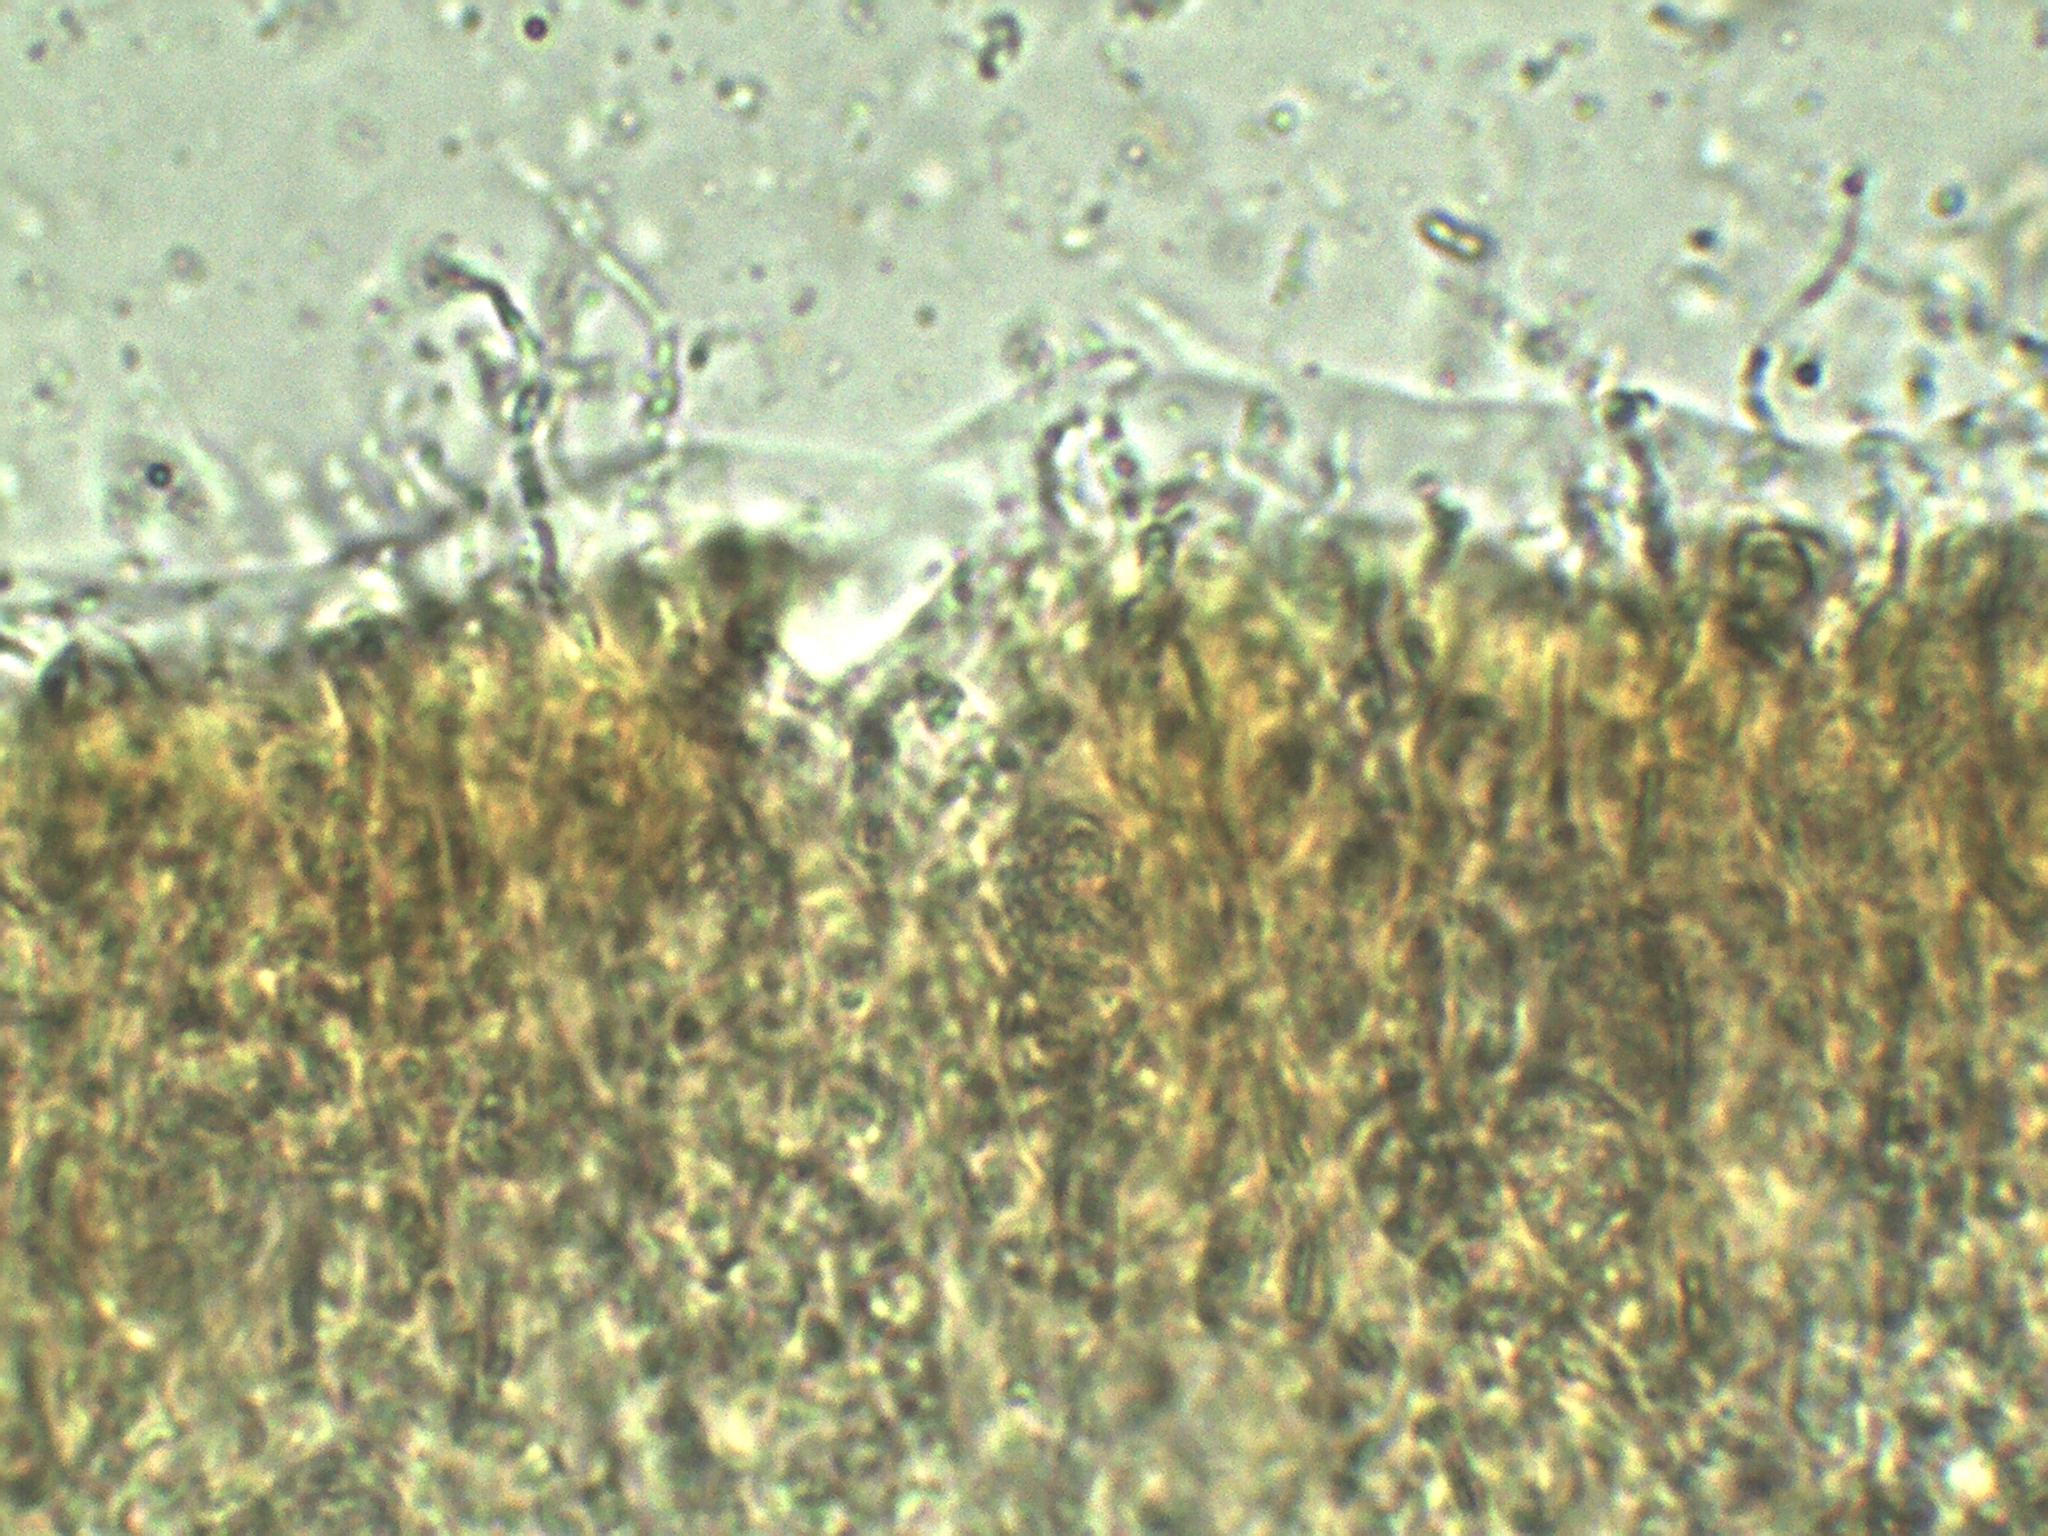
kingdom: Fungi
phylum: Basidiomycota
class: Agaricomycetes
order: Auriculariales
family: Auriculariaceae
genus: Exidia
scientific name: Exidia repanda
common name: Birch jelly
